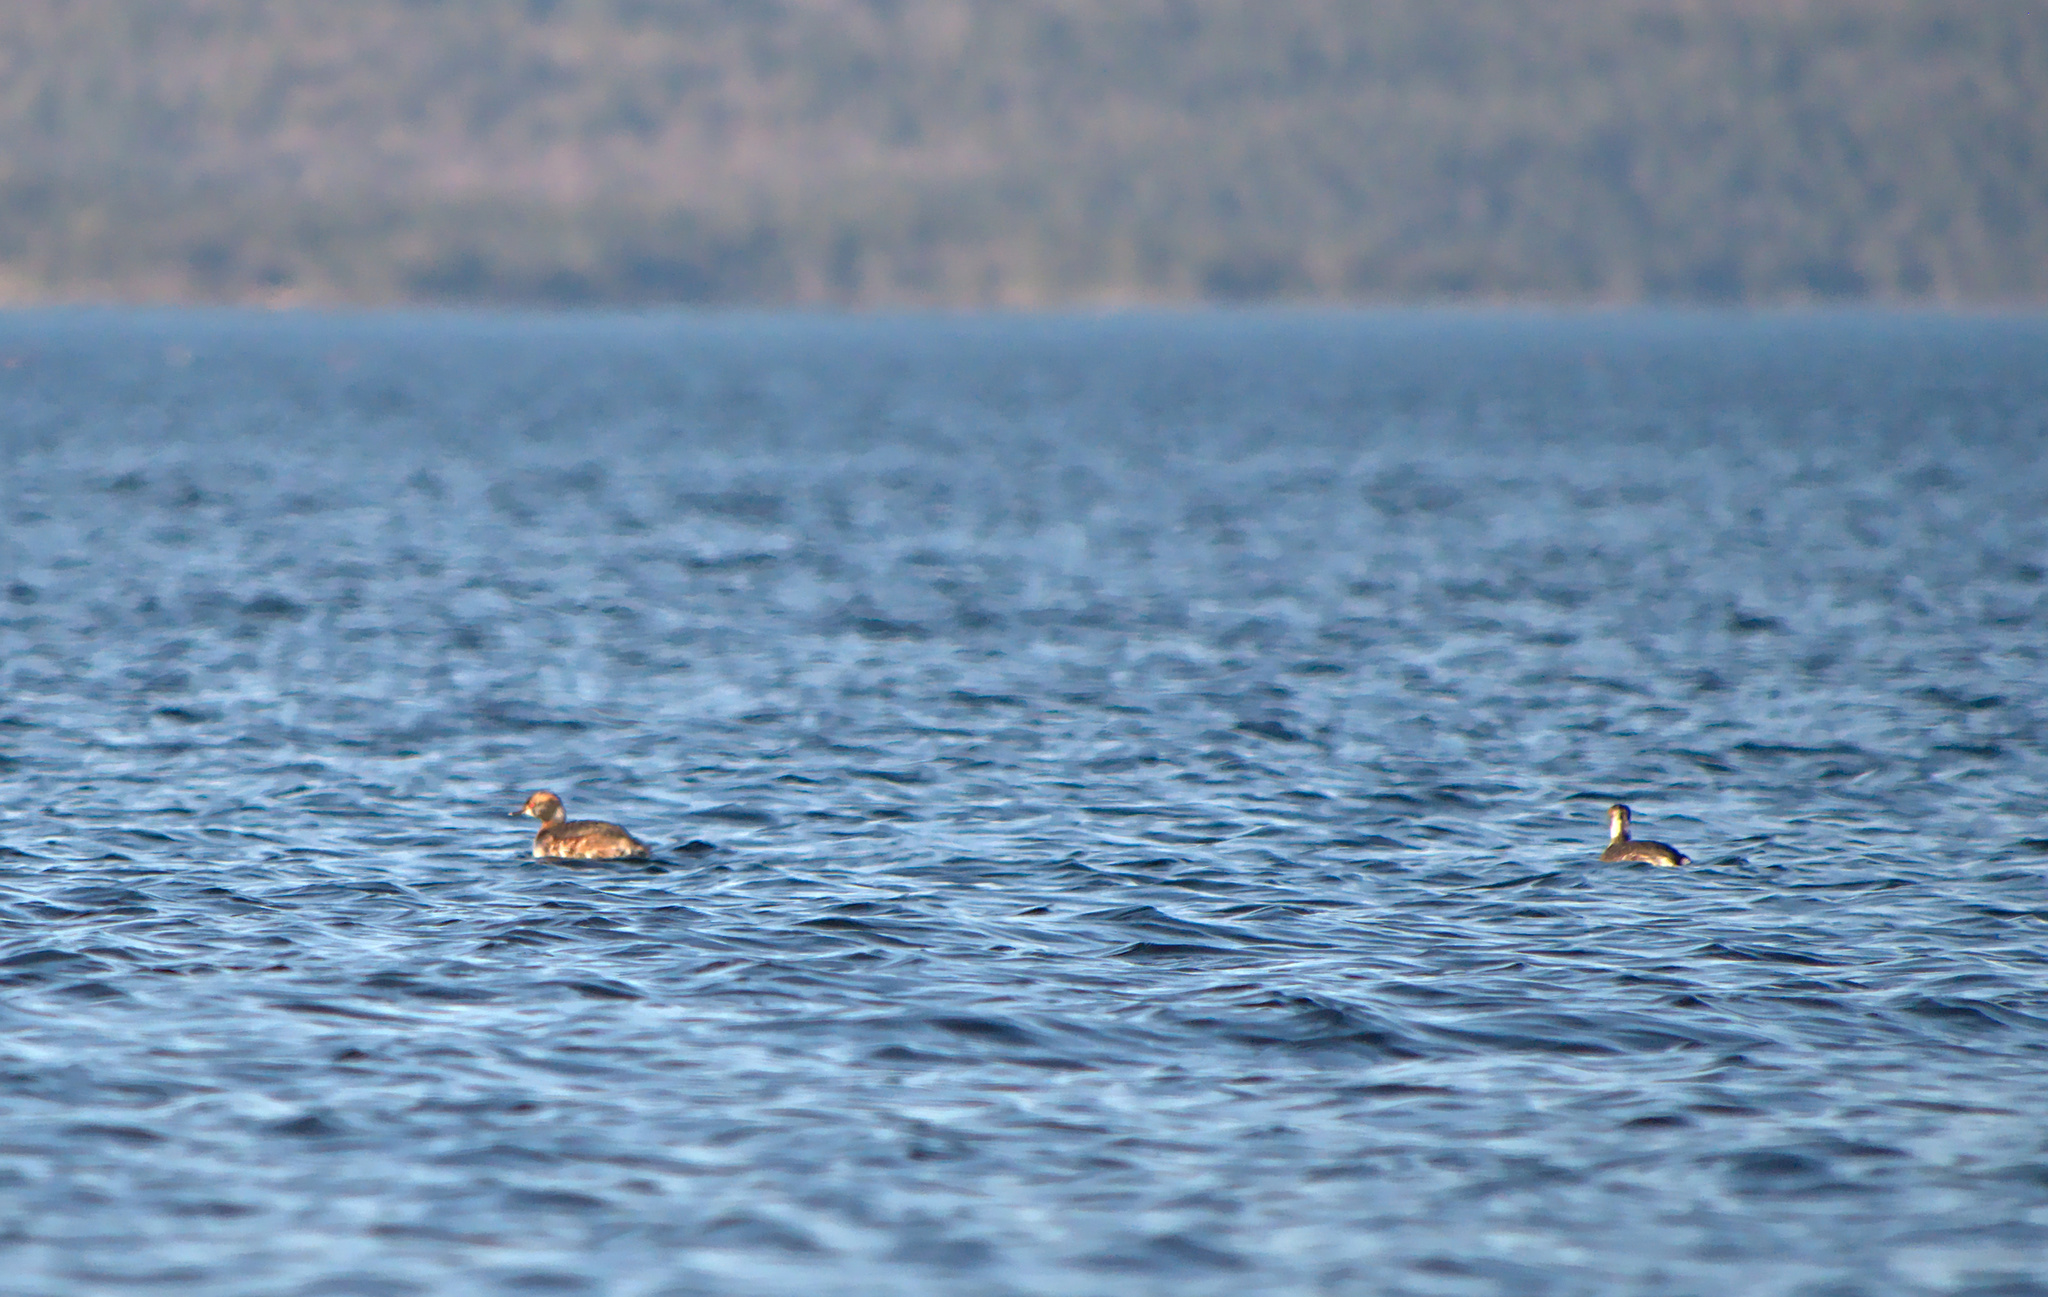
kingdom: Animalia
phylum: Chordata
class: Aves
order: Podicipediformes
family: Podicipedidae
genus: Podiceps
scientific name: Podiceps auritus
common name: Horned grebe
